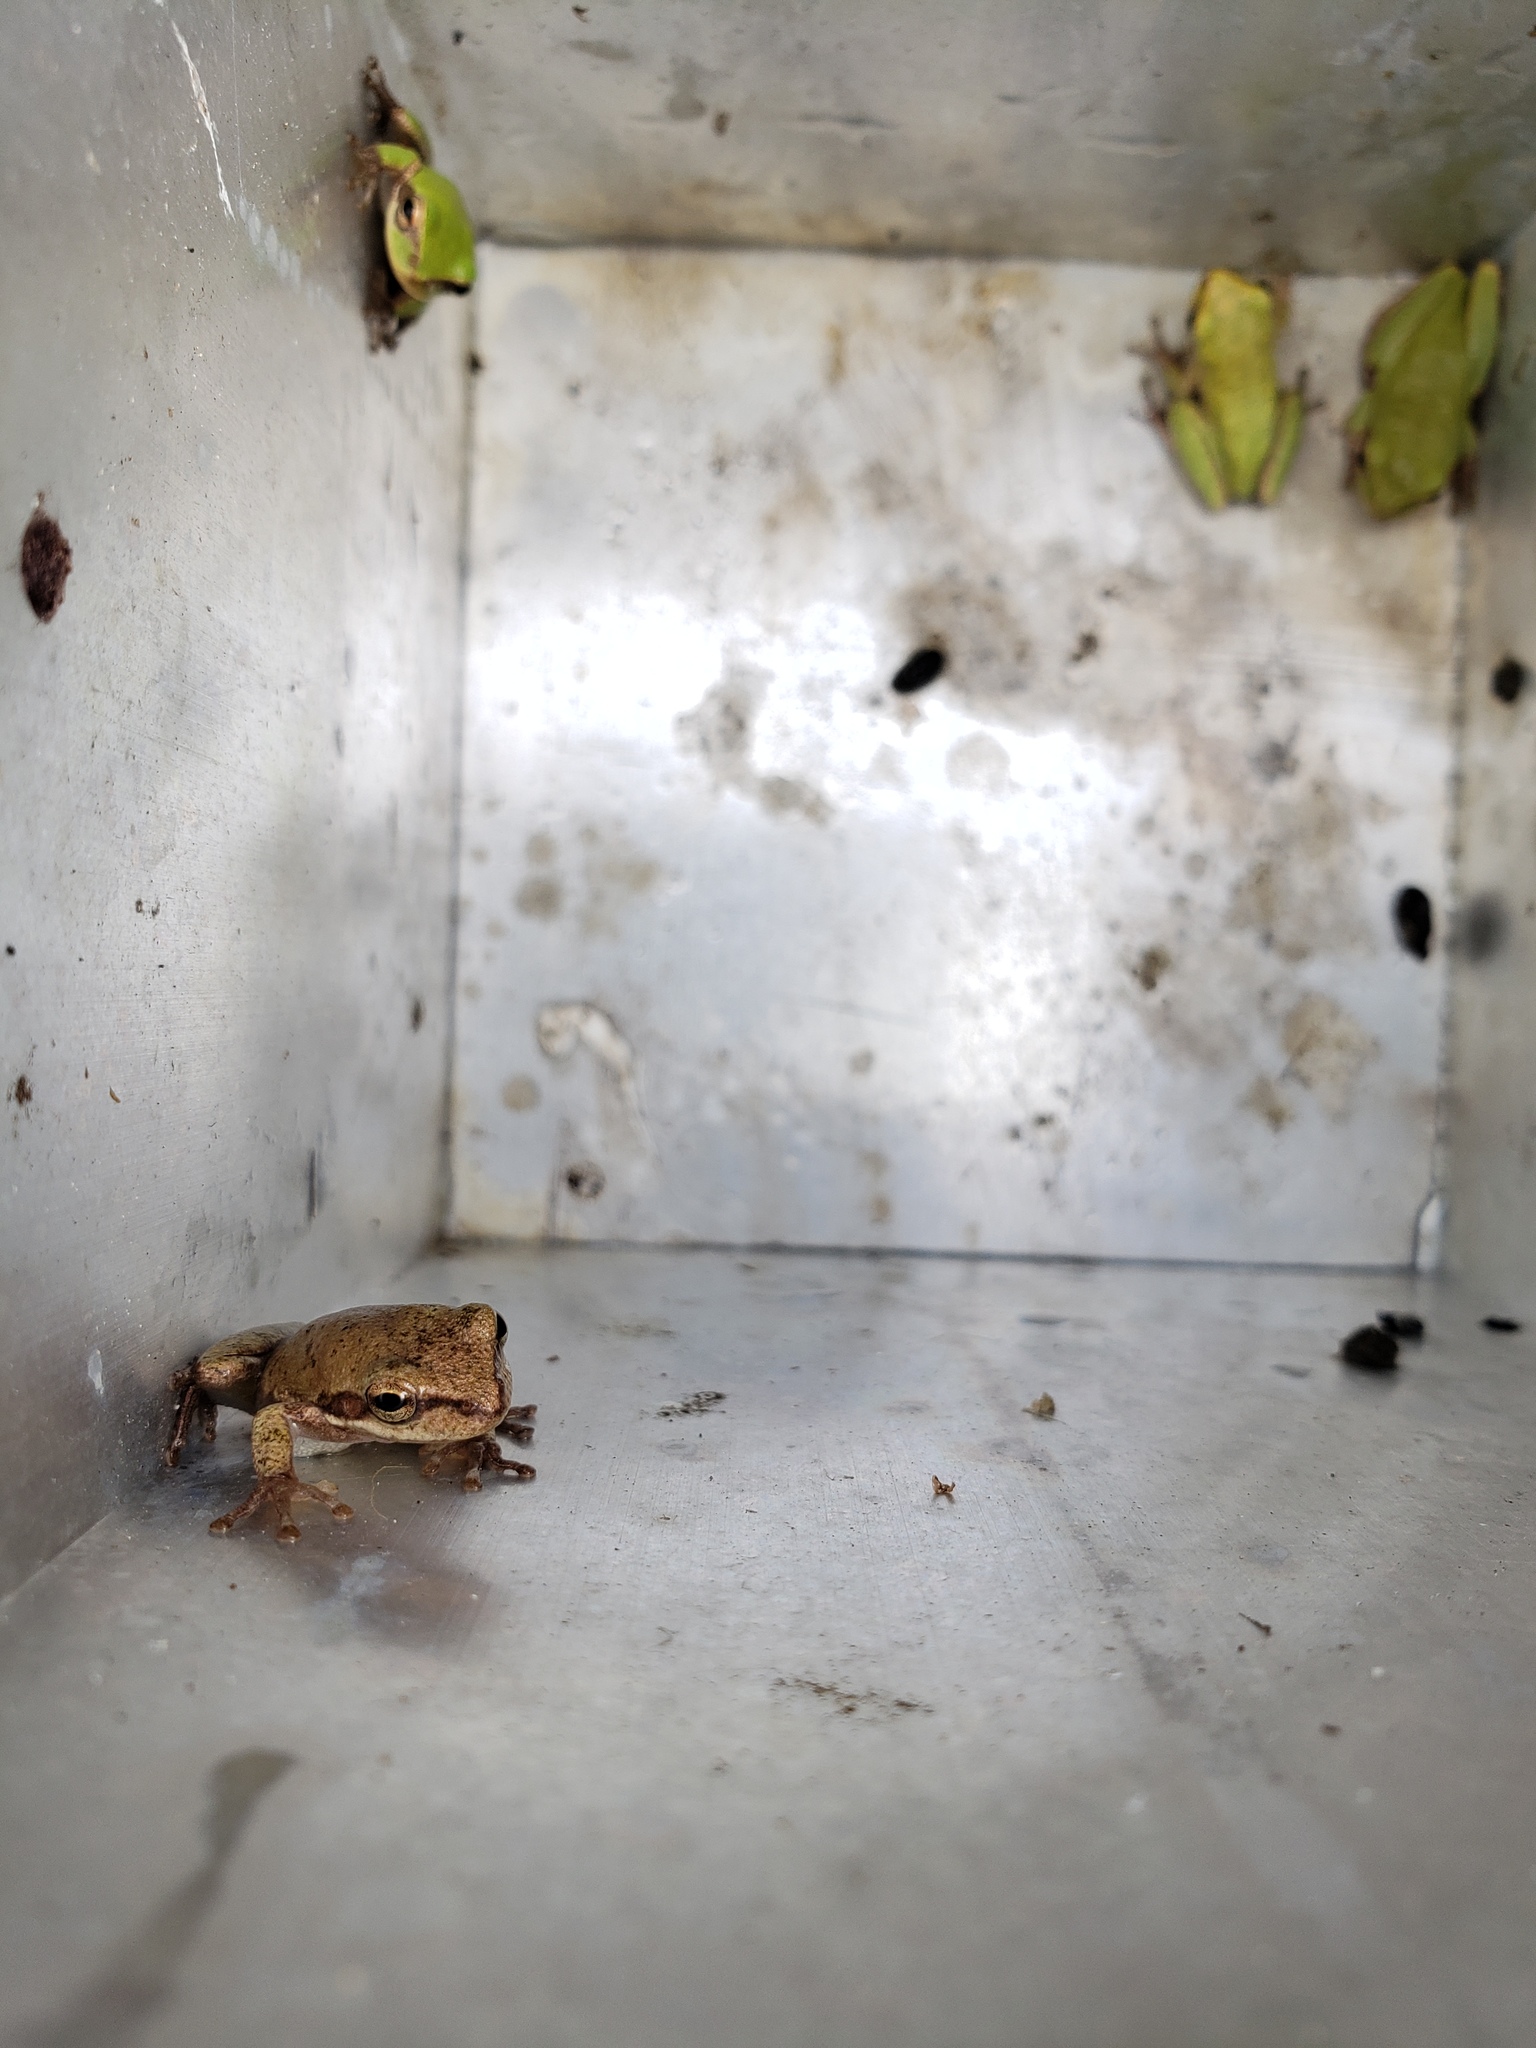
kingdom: Animalia
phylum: Chordata
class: Amphibia
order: Anura
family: Hylidae
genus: Dryophytes
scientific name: Dryophytes squirellus
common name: Squirrel treefrog
